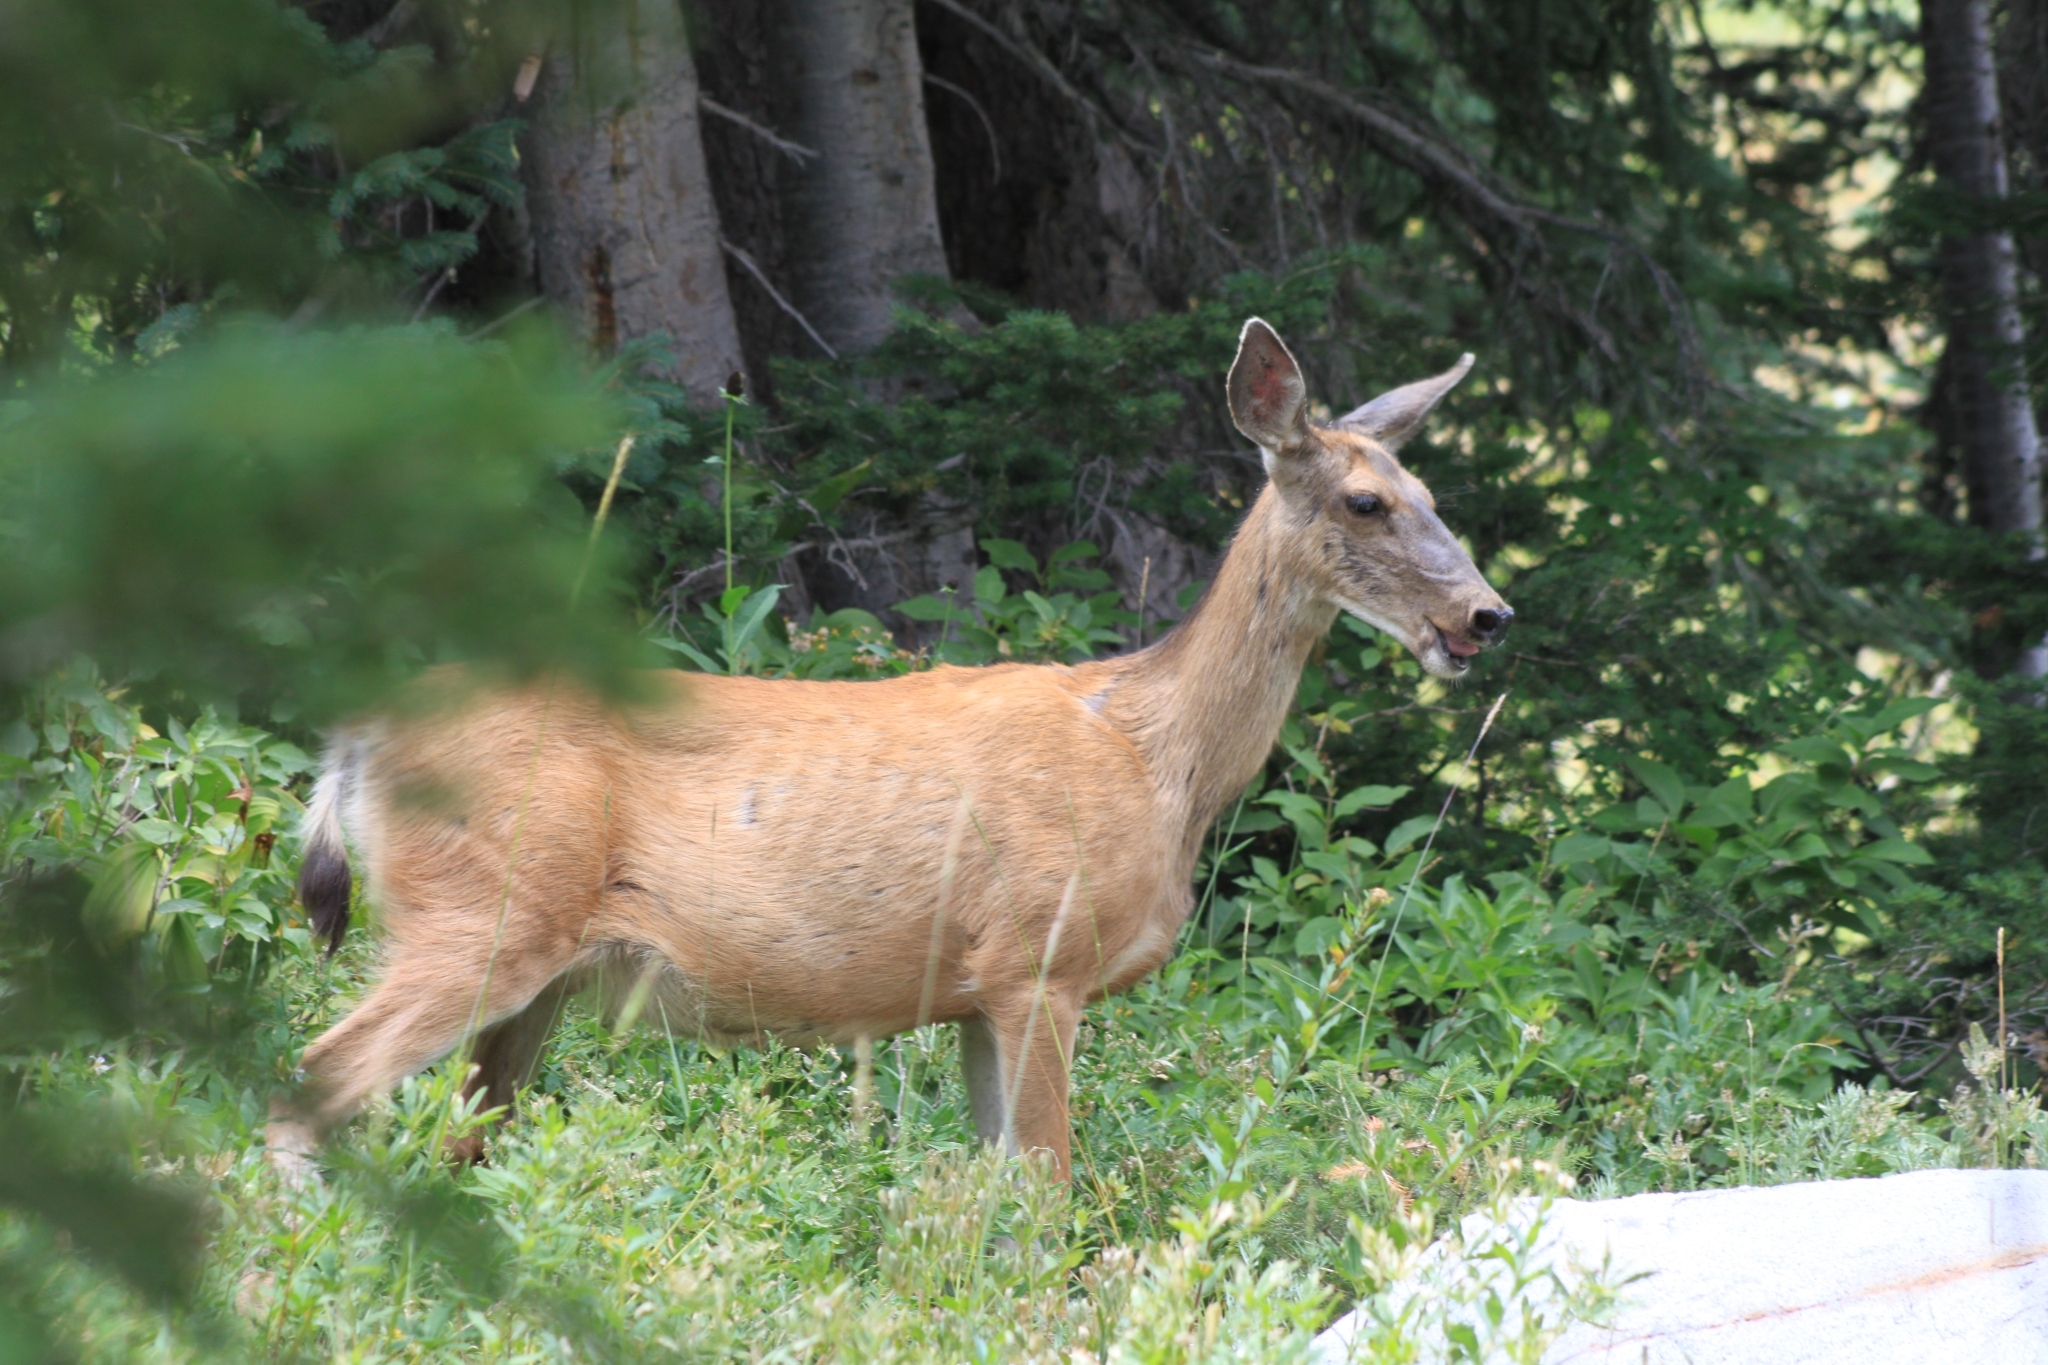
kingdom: Animalia
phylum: Chordata
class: Mammalia
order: Artiodactyla
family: Cervidae
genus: Odocoileus
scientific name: Odocoileus hemionus
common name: Mule deer
